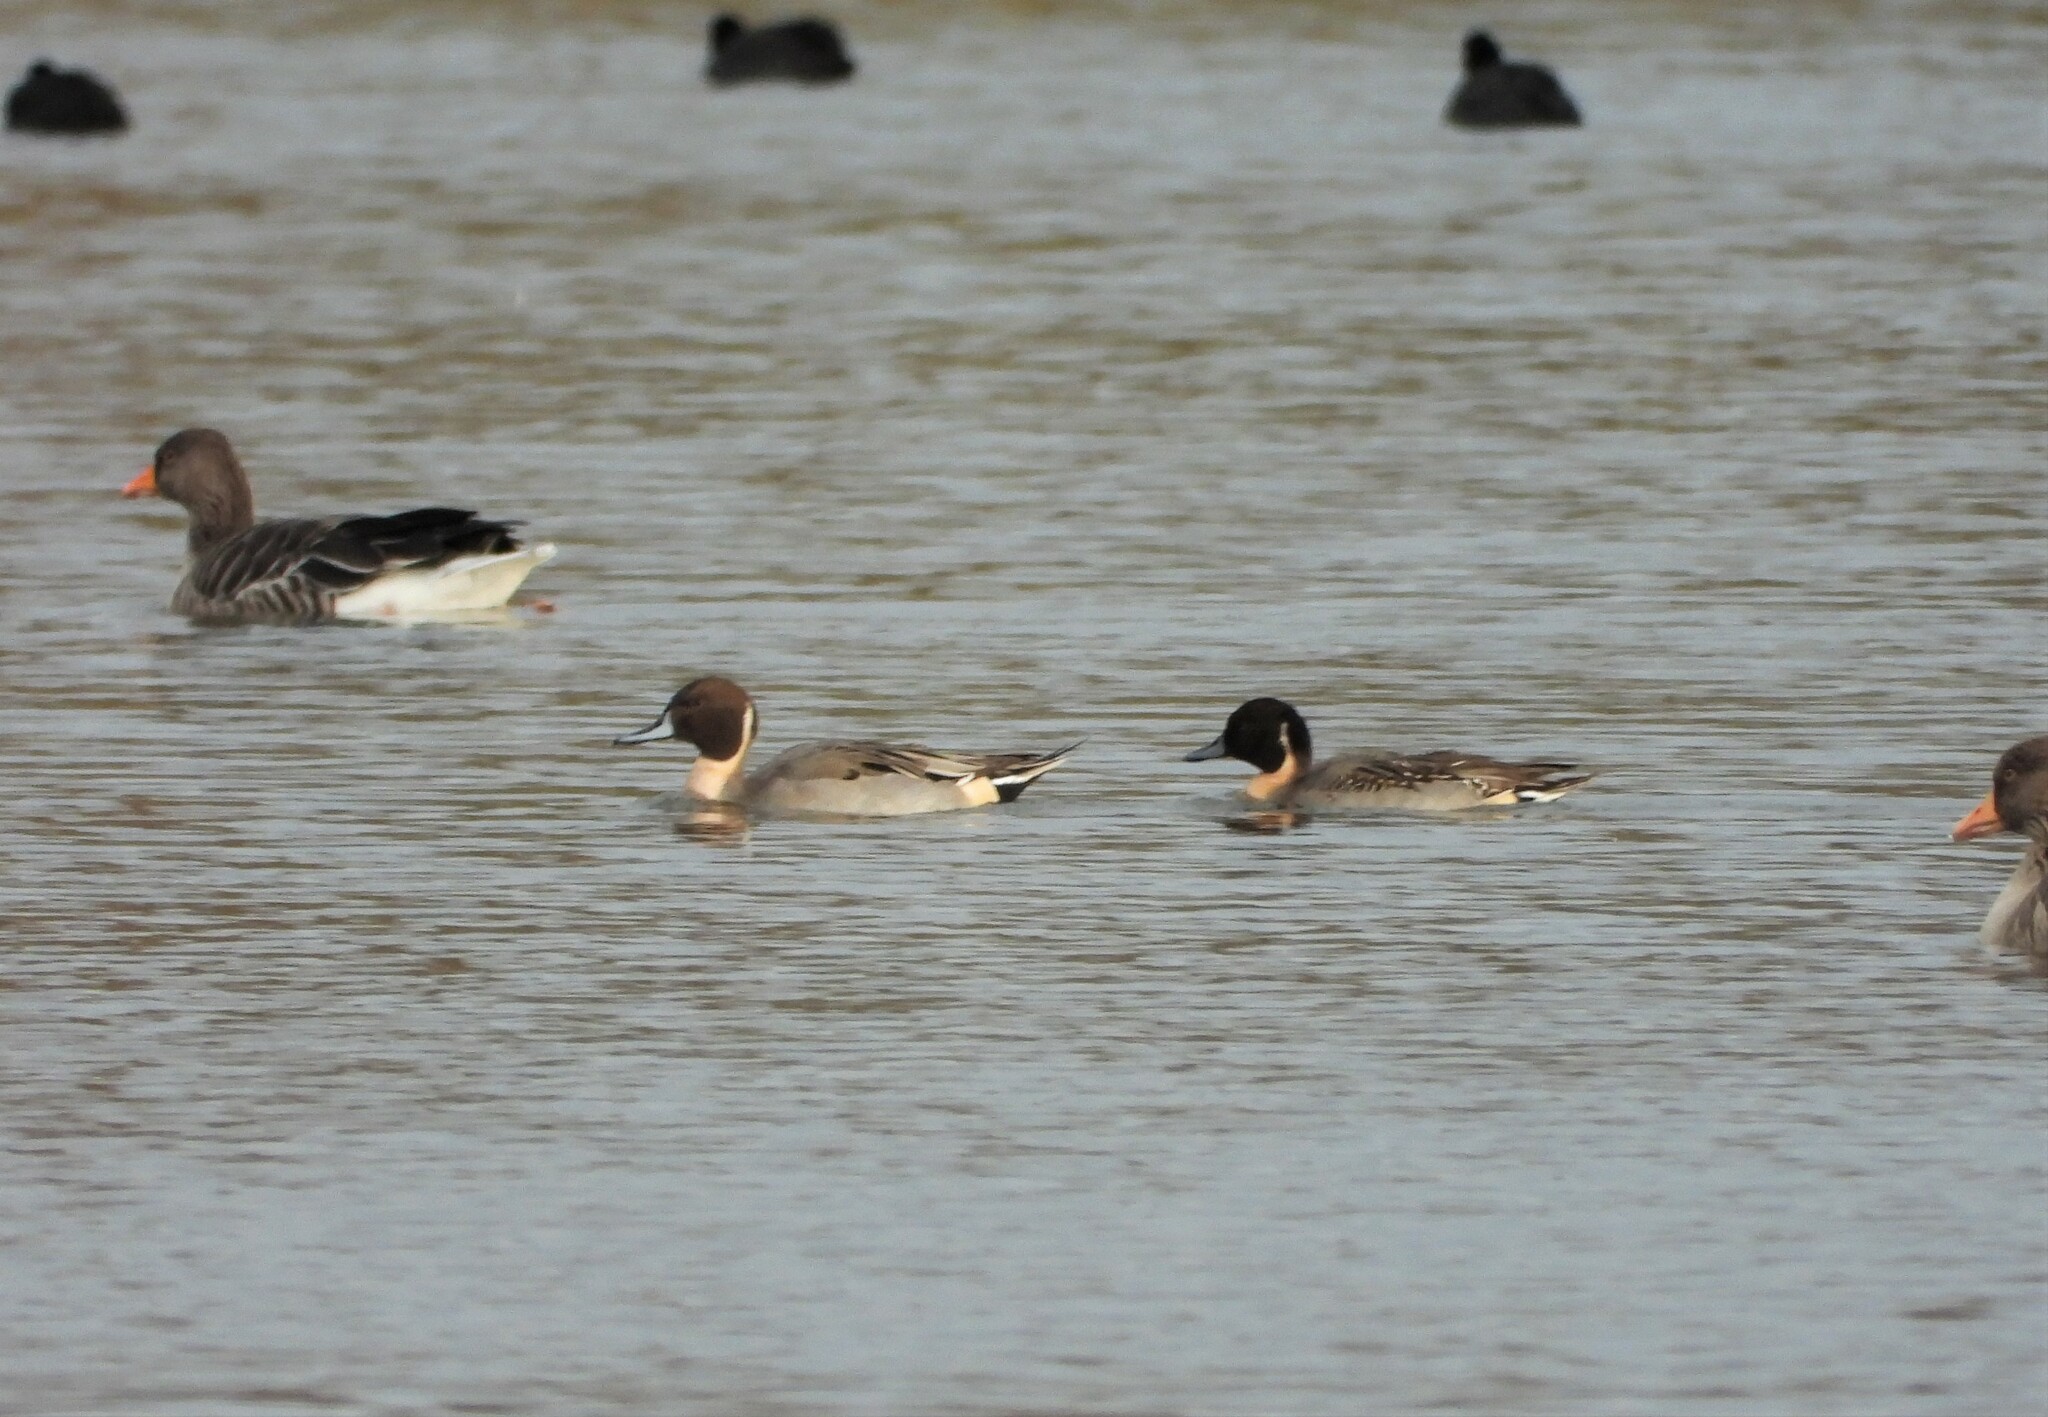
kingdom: Animalia
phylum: Chordata
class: Aves
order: Anseriformes
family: Anatidae
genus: Anas
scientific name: Anas acuta
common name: Northern pintail
